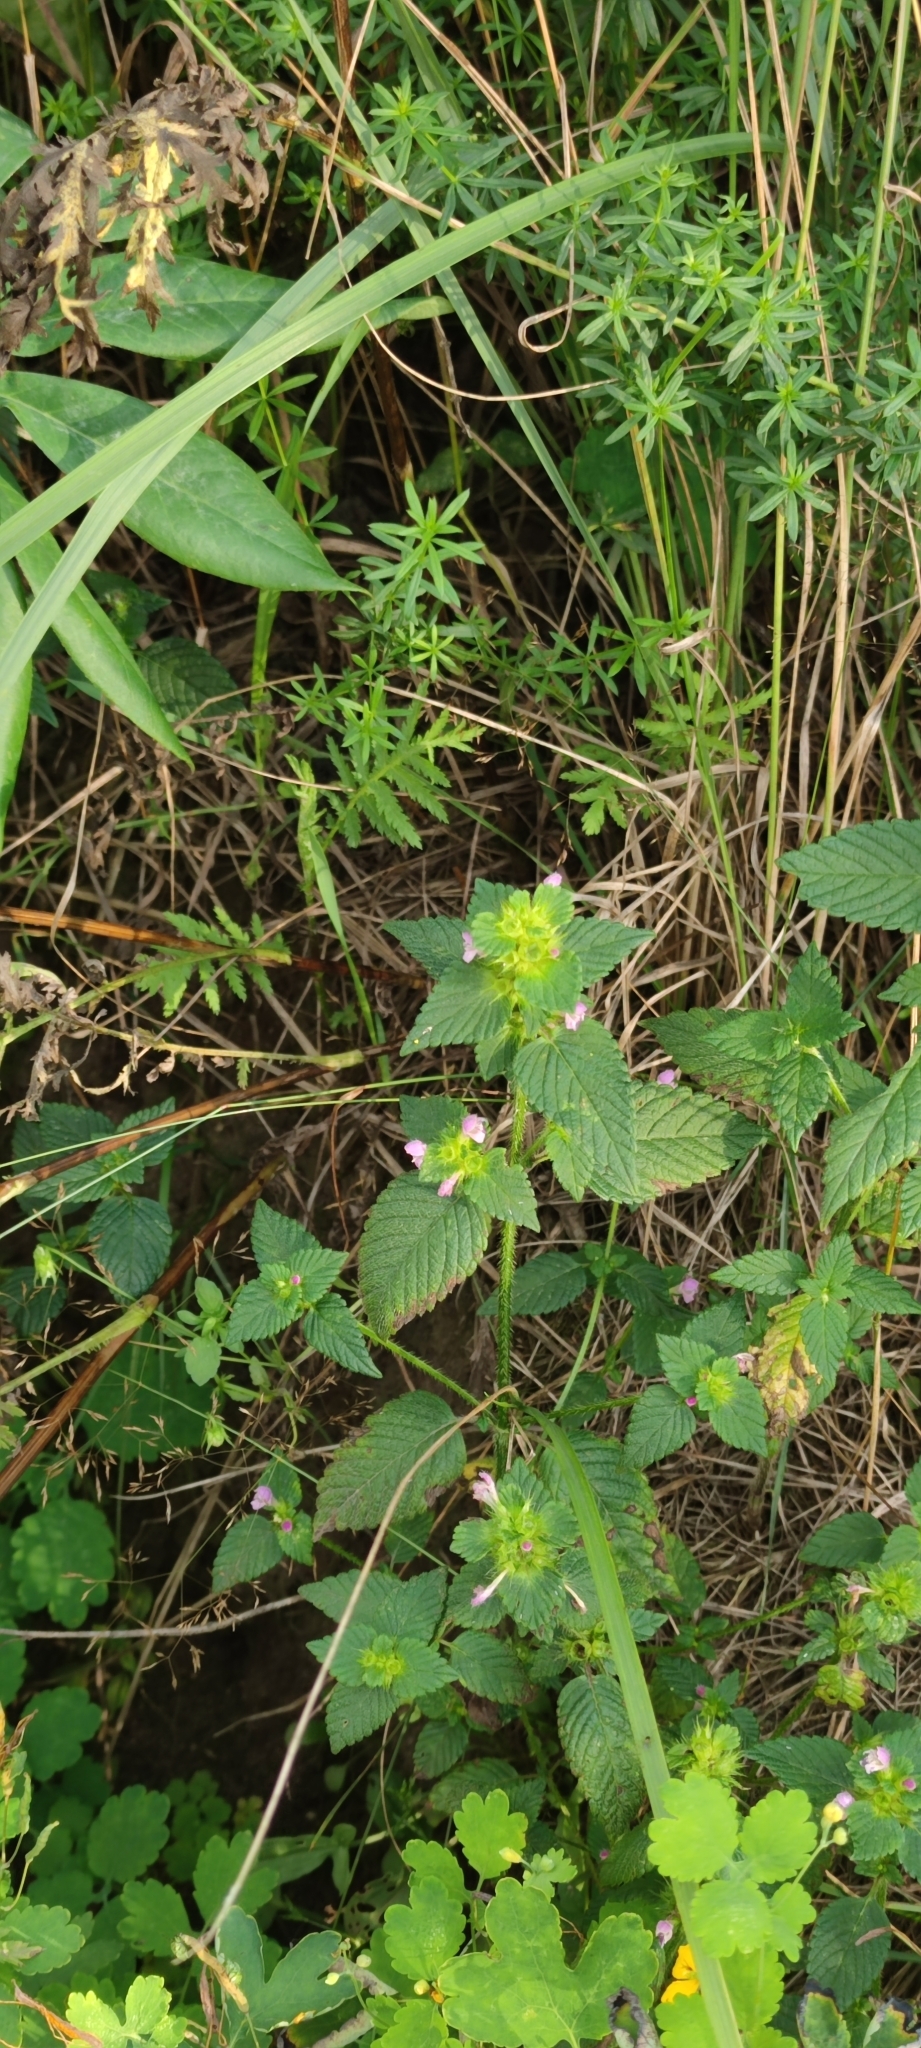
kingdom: Plantae
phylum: Tracheophyta
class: Magnoliopsida
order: Lamiales
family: Lamiaceae
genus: Galeopsis
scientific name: Galeopsis bifida
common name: Bifid hemp-nettle
